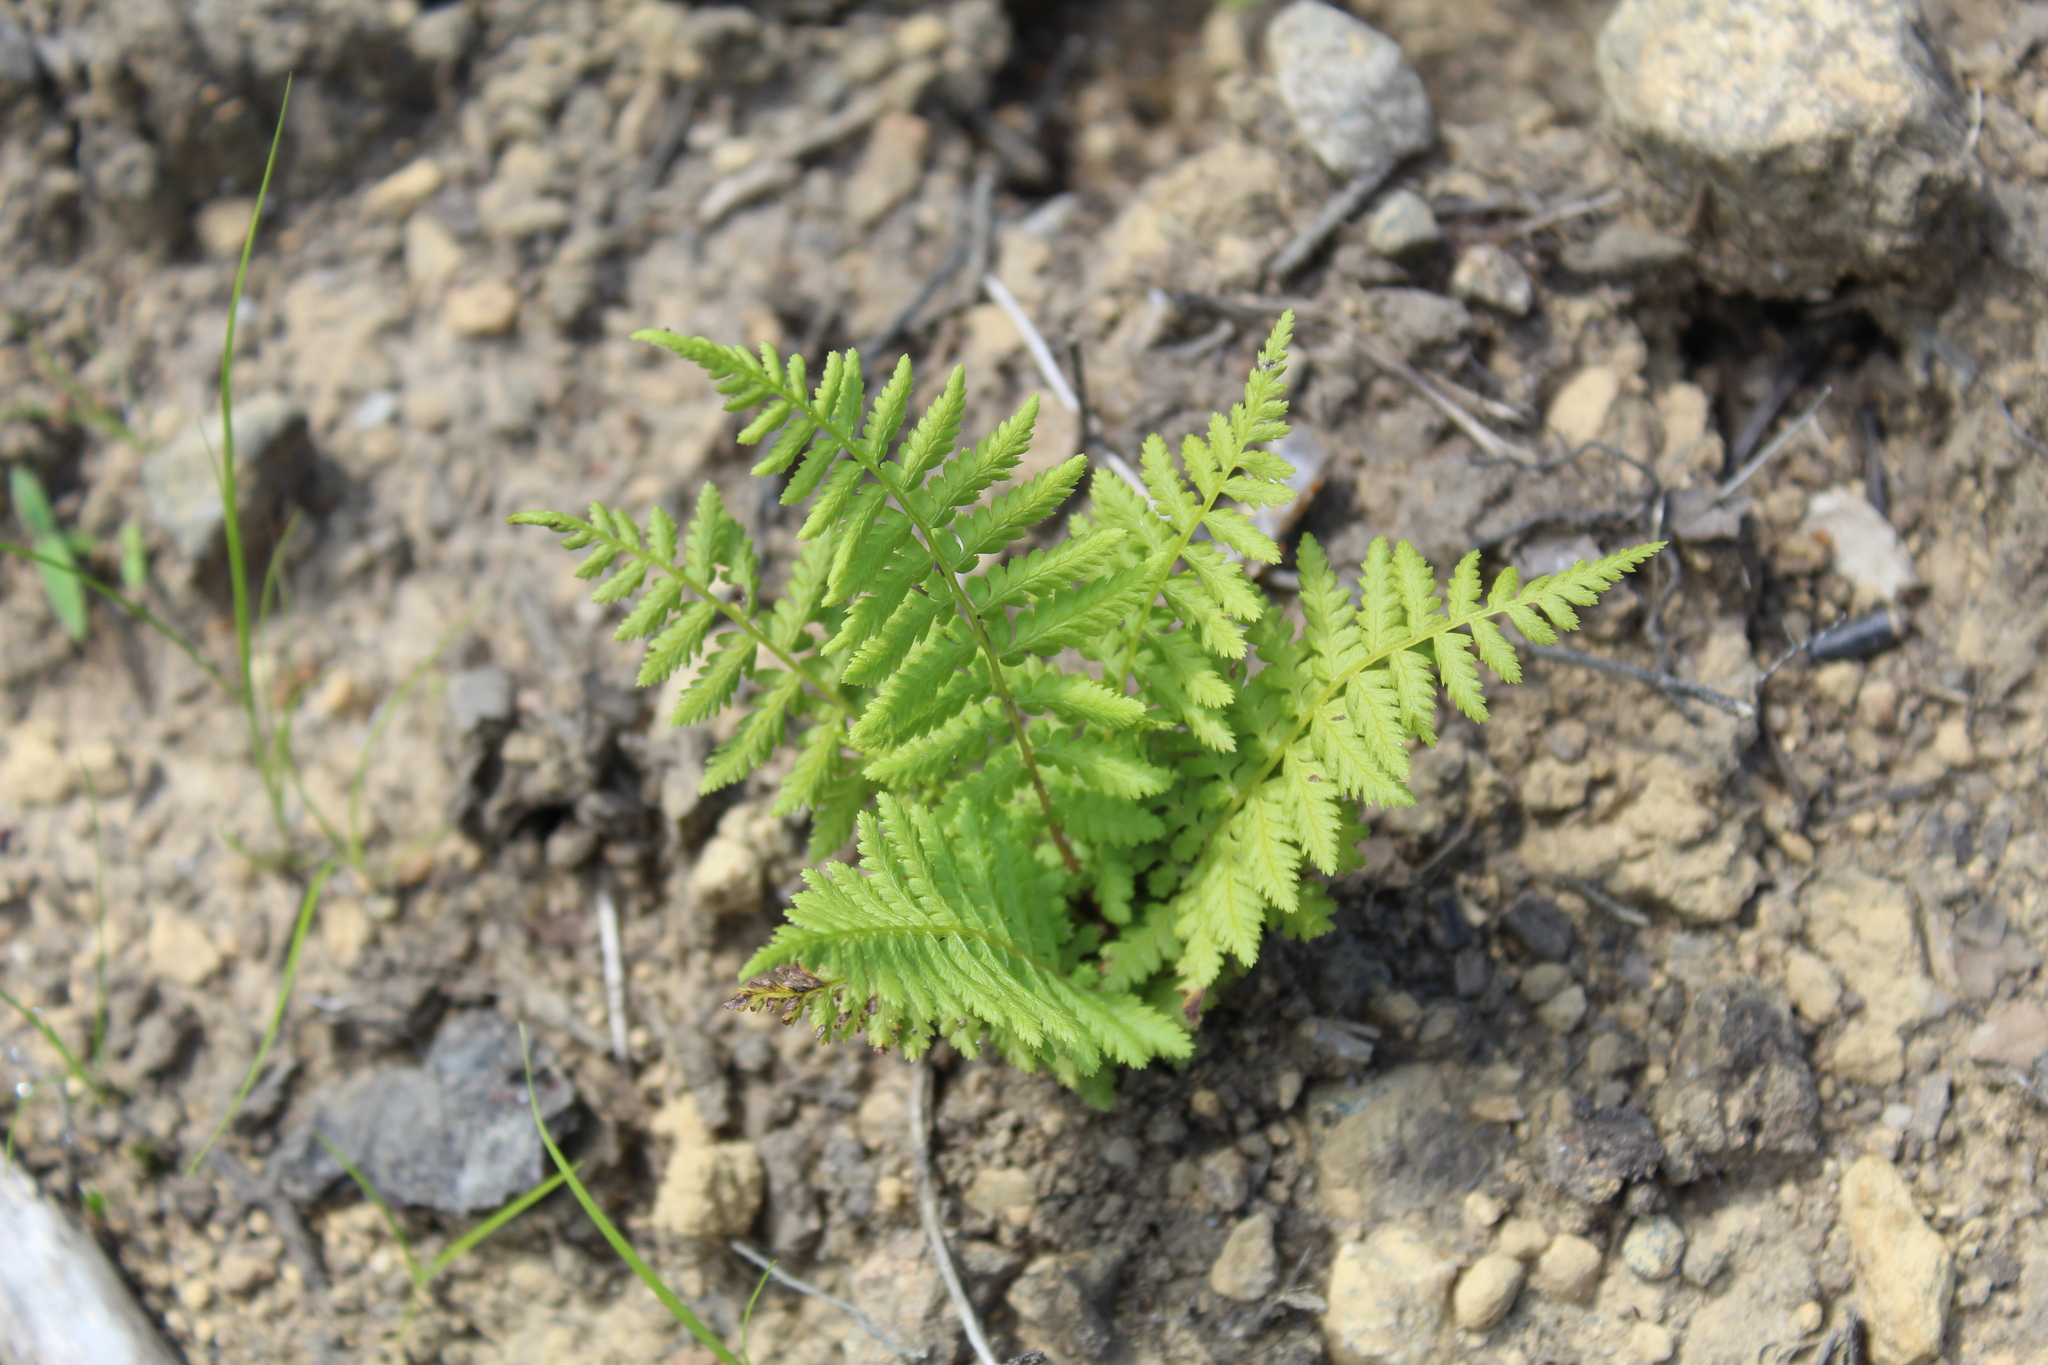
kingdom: Plantae
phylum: Tracheophyta
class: Polypodiopsida
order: Polypodiales
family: Athyriaceae
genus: Athyrium
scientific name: Athyrium angustum
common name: Northern lady fern
